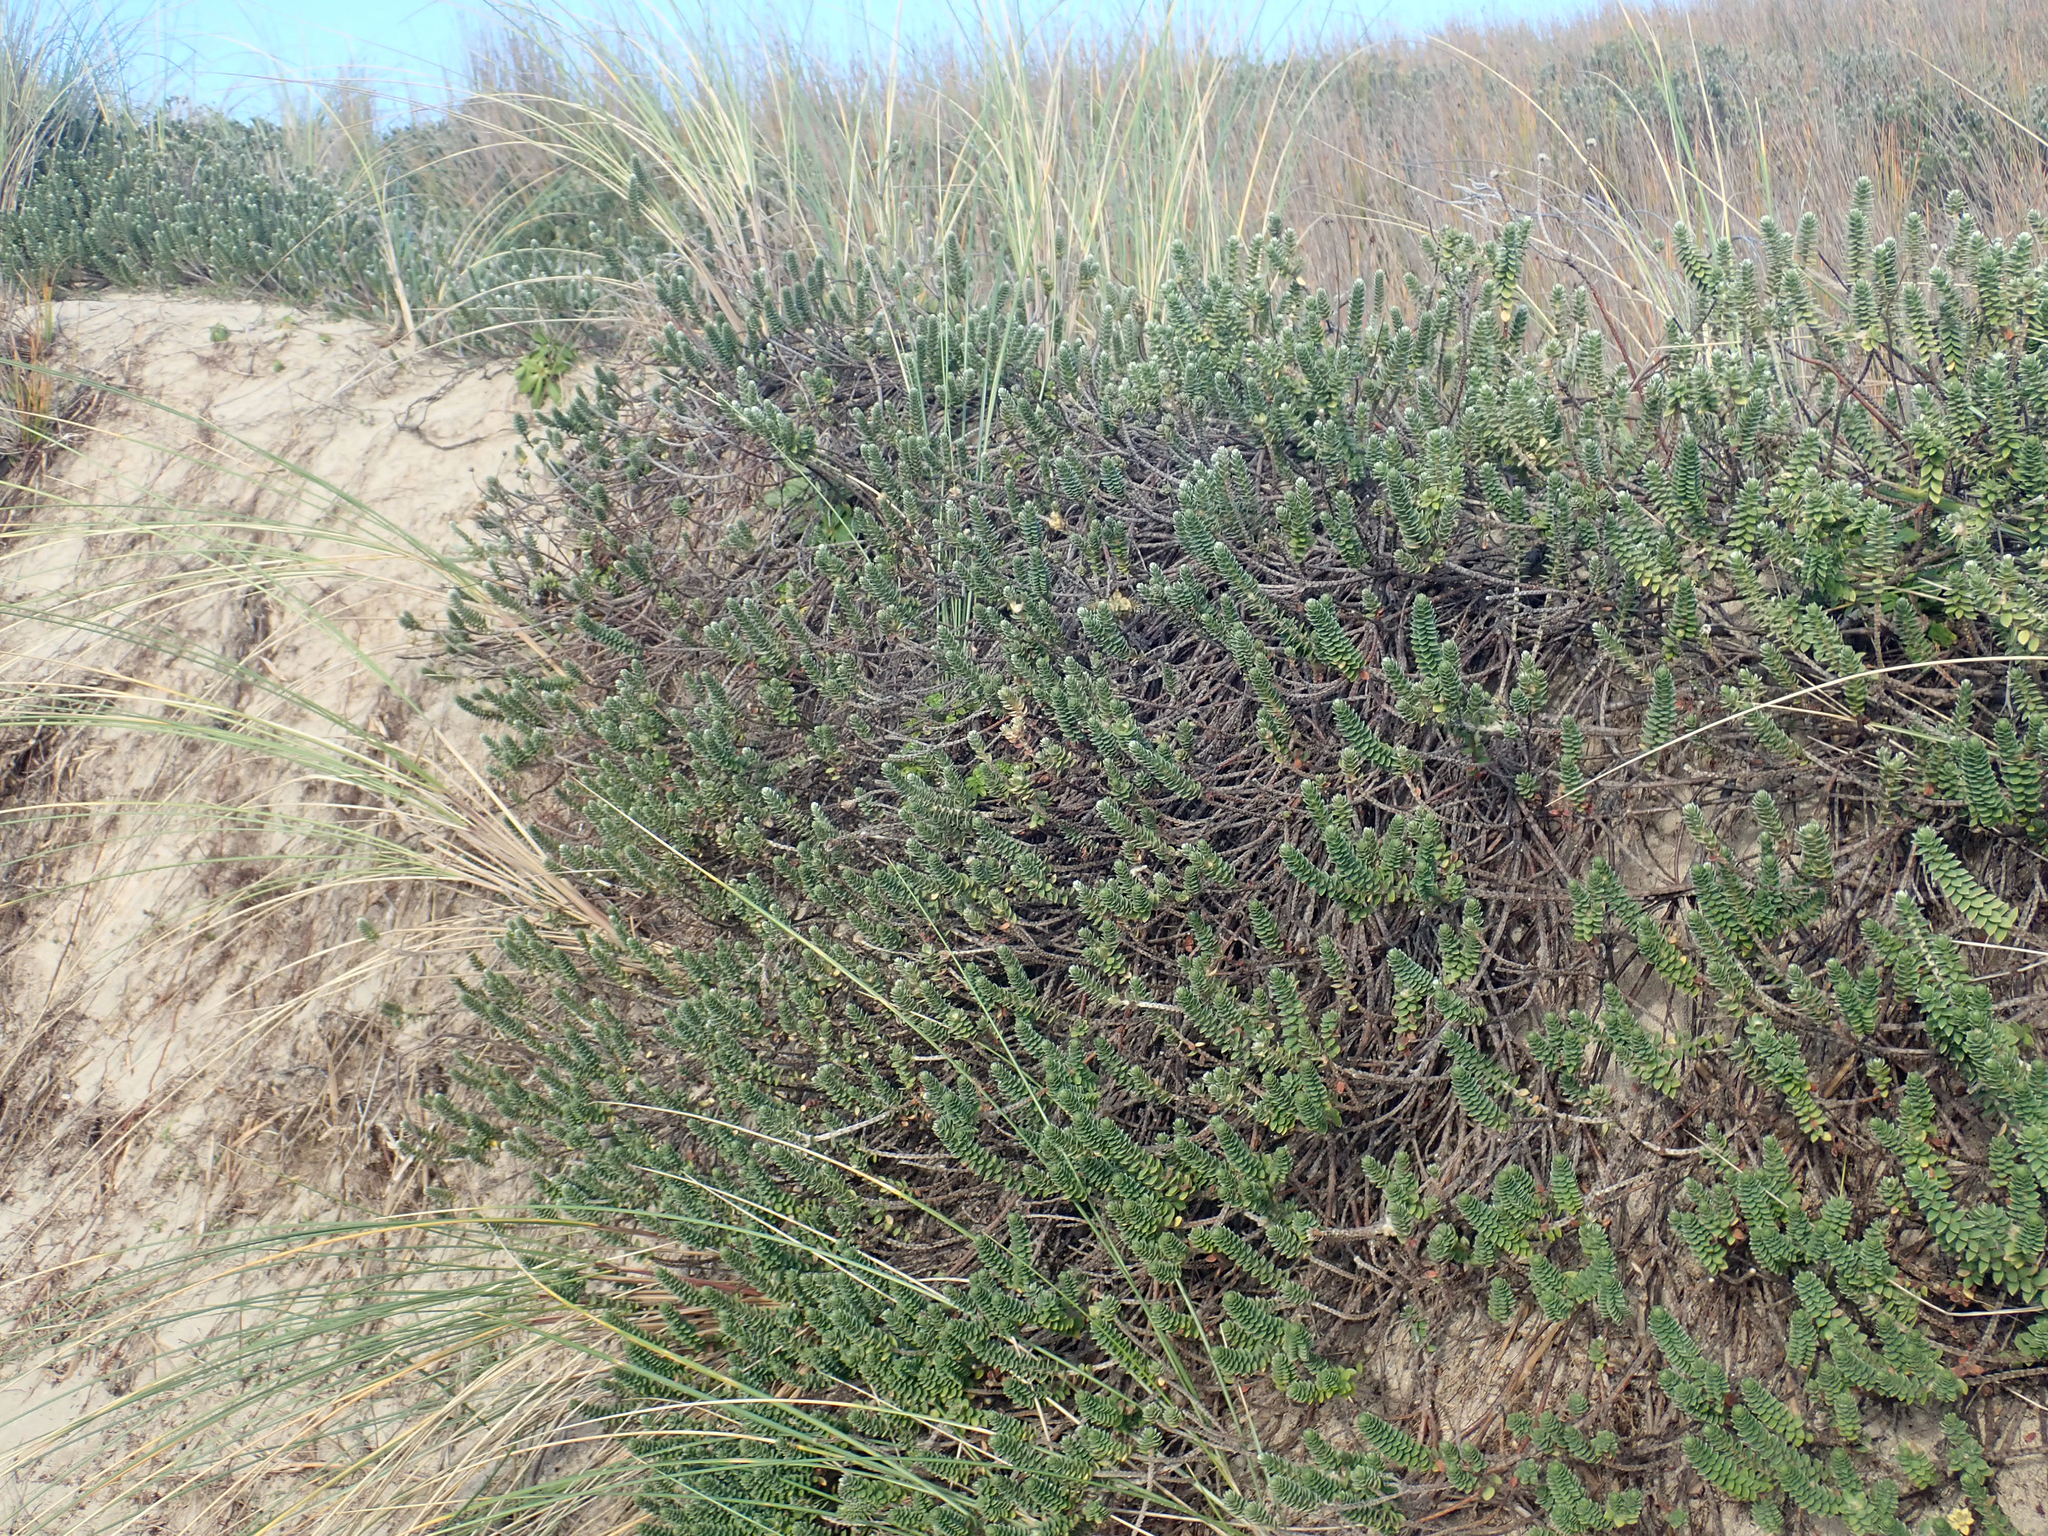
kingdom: Plantae
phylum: Tracheophyta
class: Magnoliopsida
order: Malvales
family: Thymelaeaceae
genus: Pimelea
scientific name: Pimelea villosa
